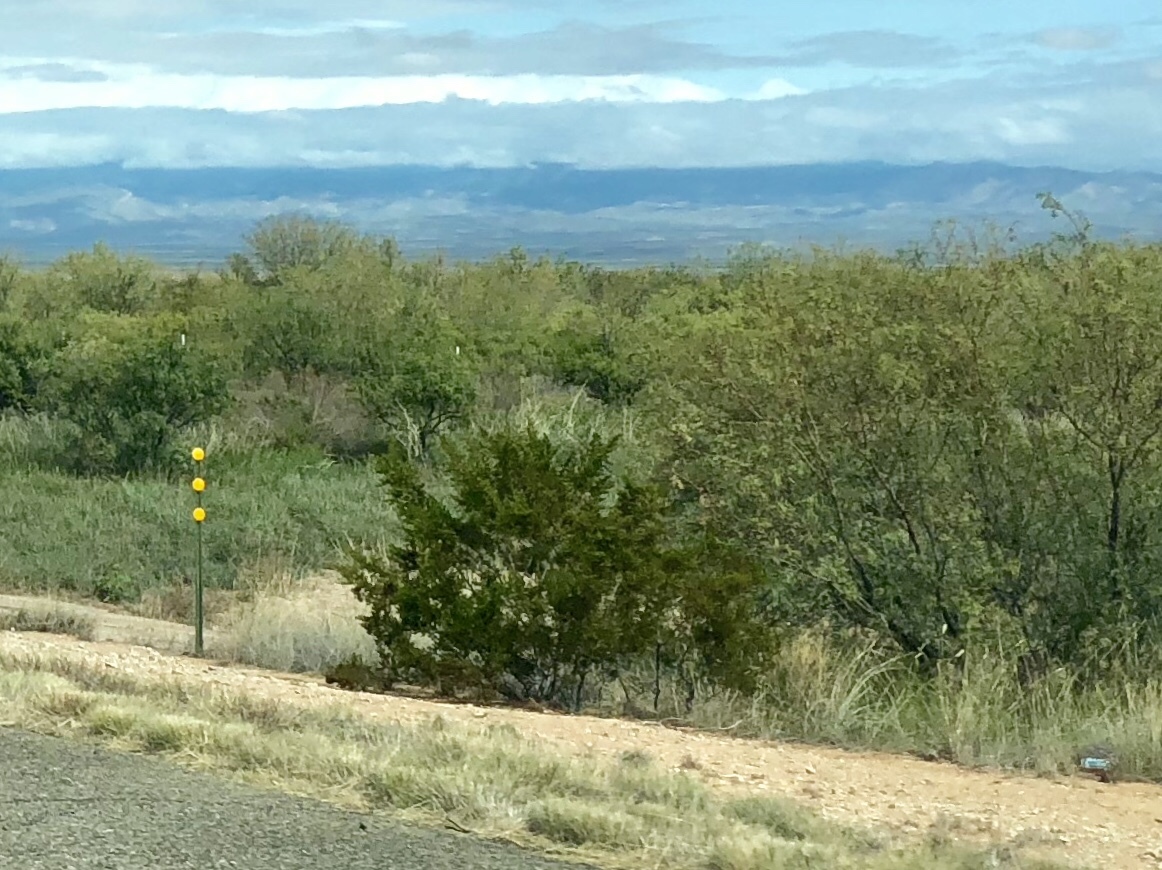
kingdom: Plantae
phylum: Tracheophyta
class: Magnoliopsida
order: Zygophyllales
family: Zygophyllaceae
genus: Larrea
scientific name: Larrea tridentata
